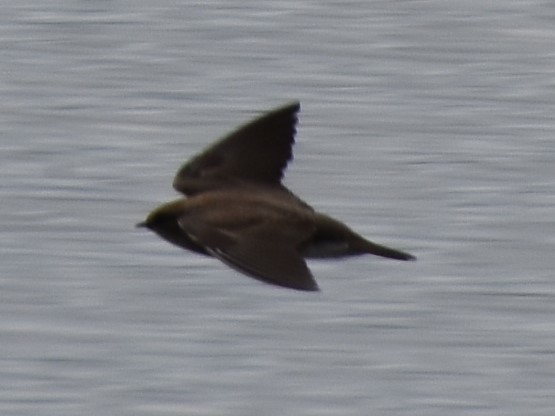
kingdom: Animalia
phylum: Chordata
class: Aves
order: Passeriformes
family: Hirundinidae
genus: Stelgidopteryx
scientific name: Stelgidopteryx serripennis
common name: Northern rough-winged swallow
